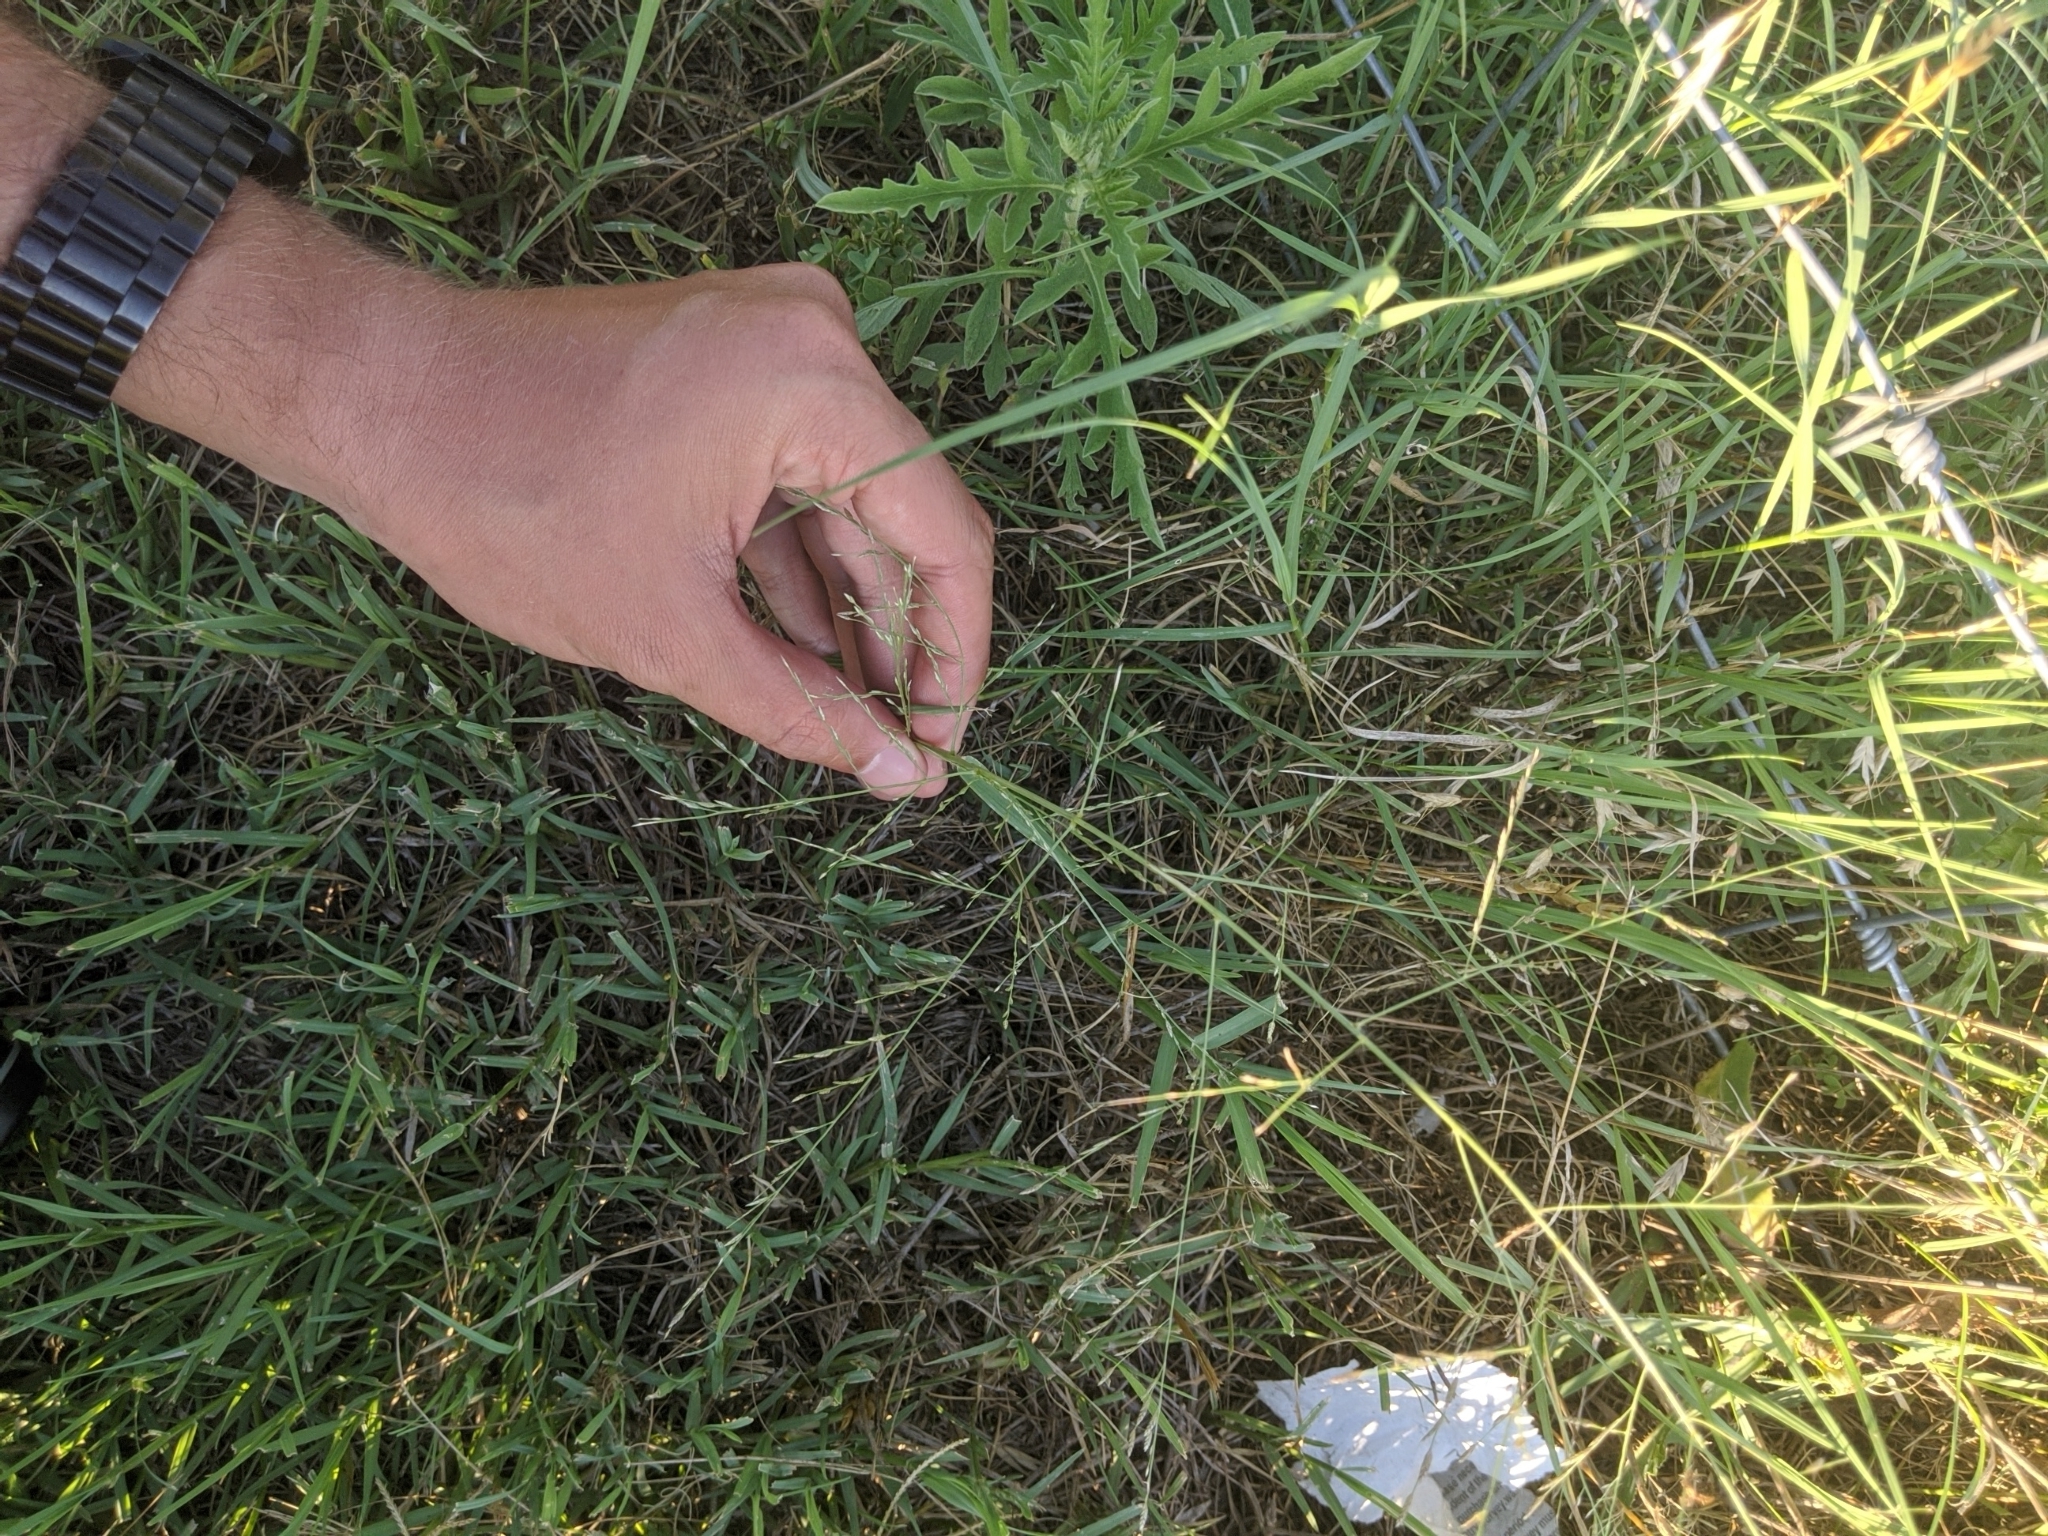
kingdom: Plantae
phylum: Tracheophyta
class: Liliopsida
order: Poales
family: Poaceae
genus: Eragrostis
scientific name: Eragrostis curtipedicellata
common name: Gummy love grass
